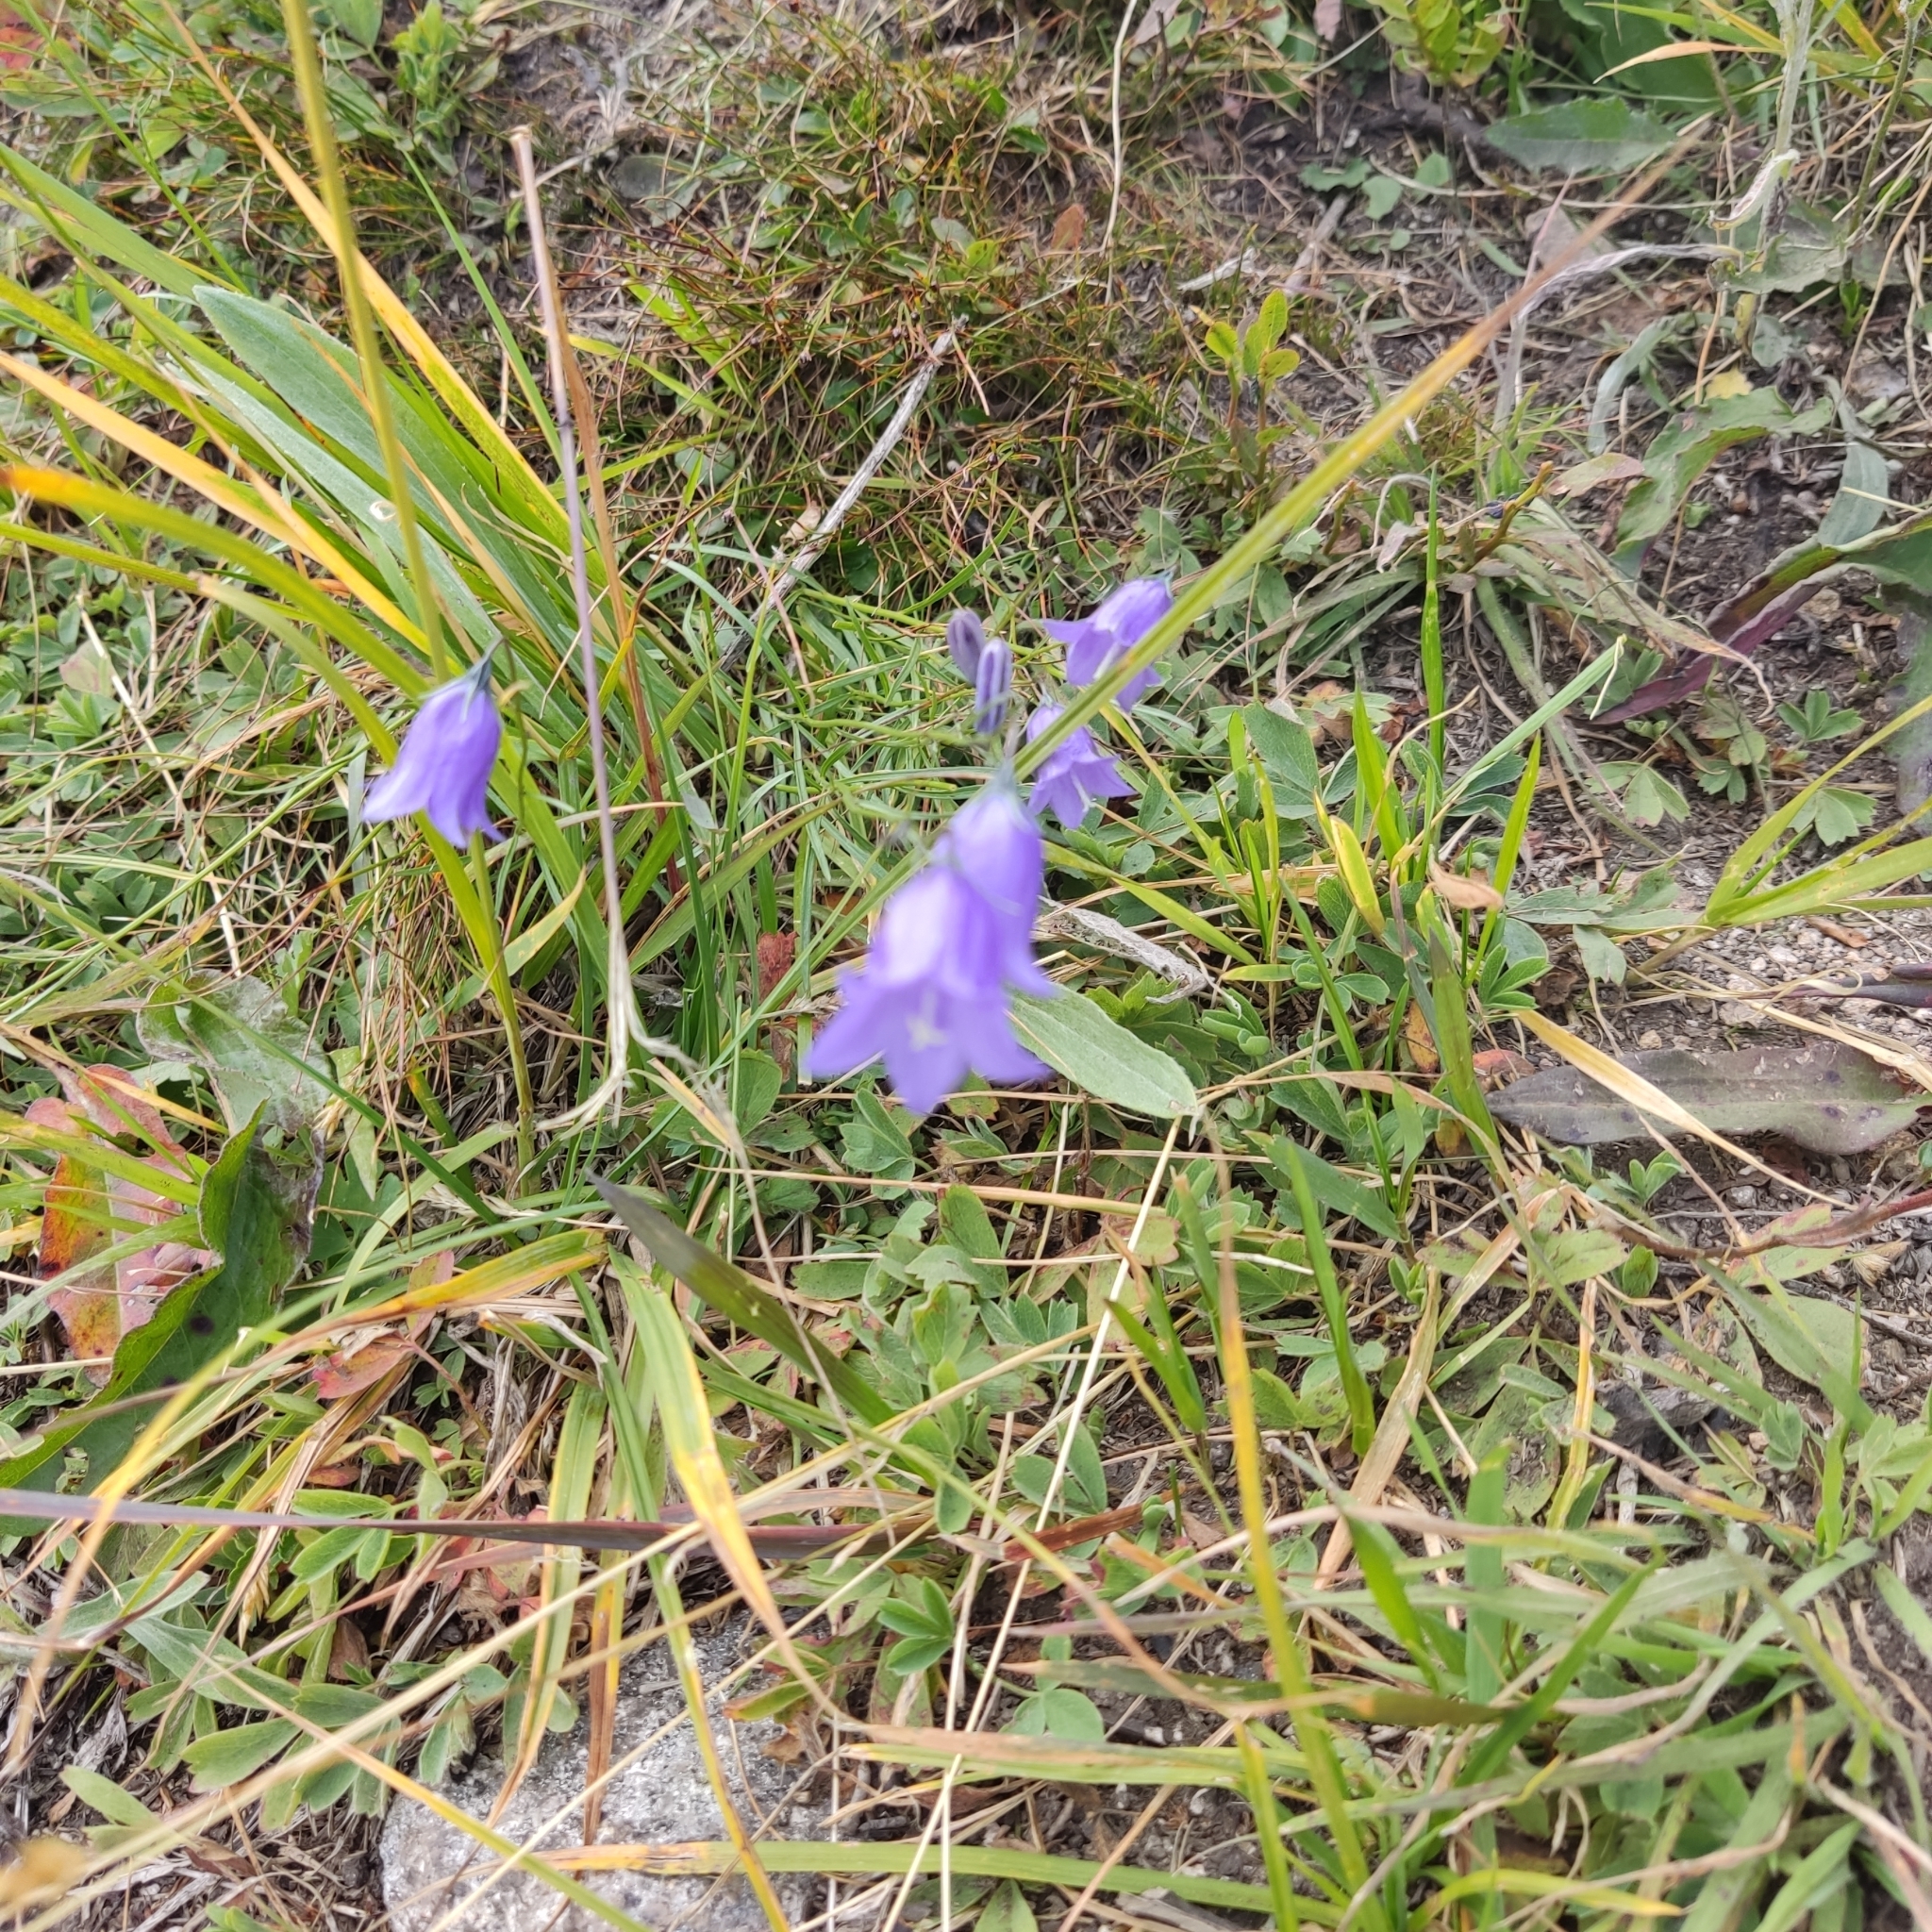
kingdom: Plantae
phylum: Tracheophyta
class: Magnoliopsida
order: Asterales
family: Campanulaceae
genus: Campanula
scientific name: Campanula rotundifolia
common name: Harebell
